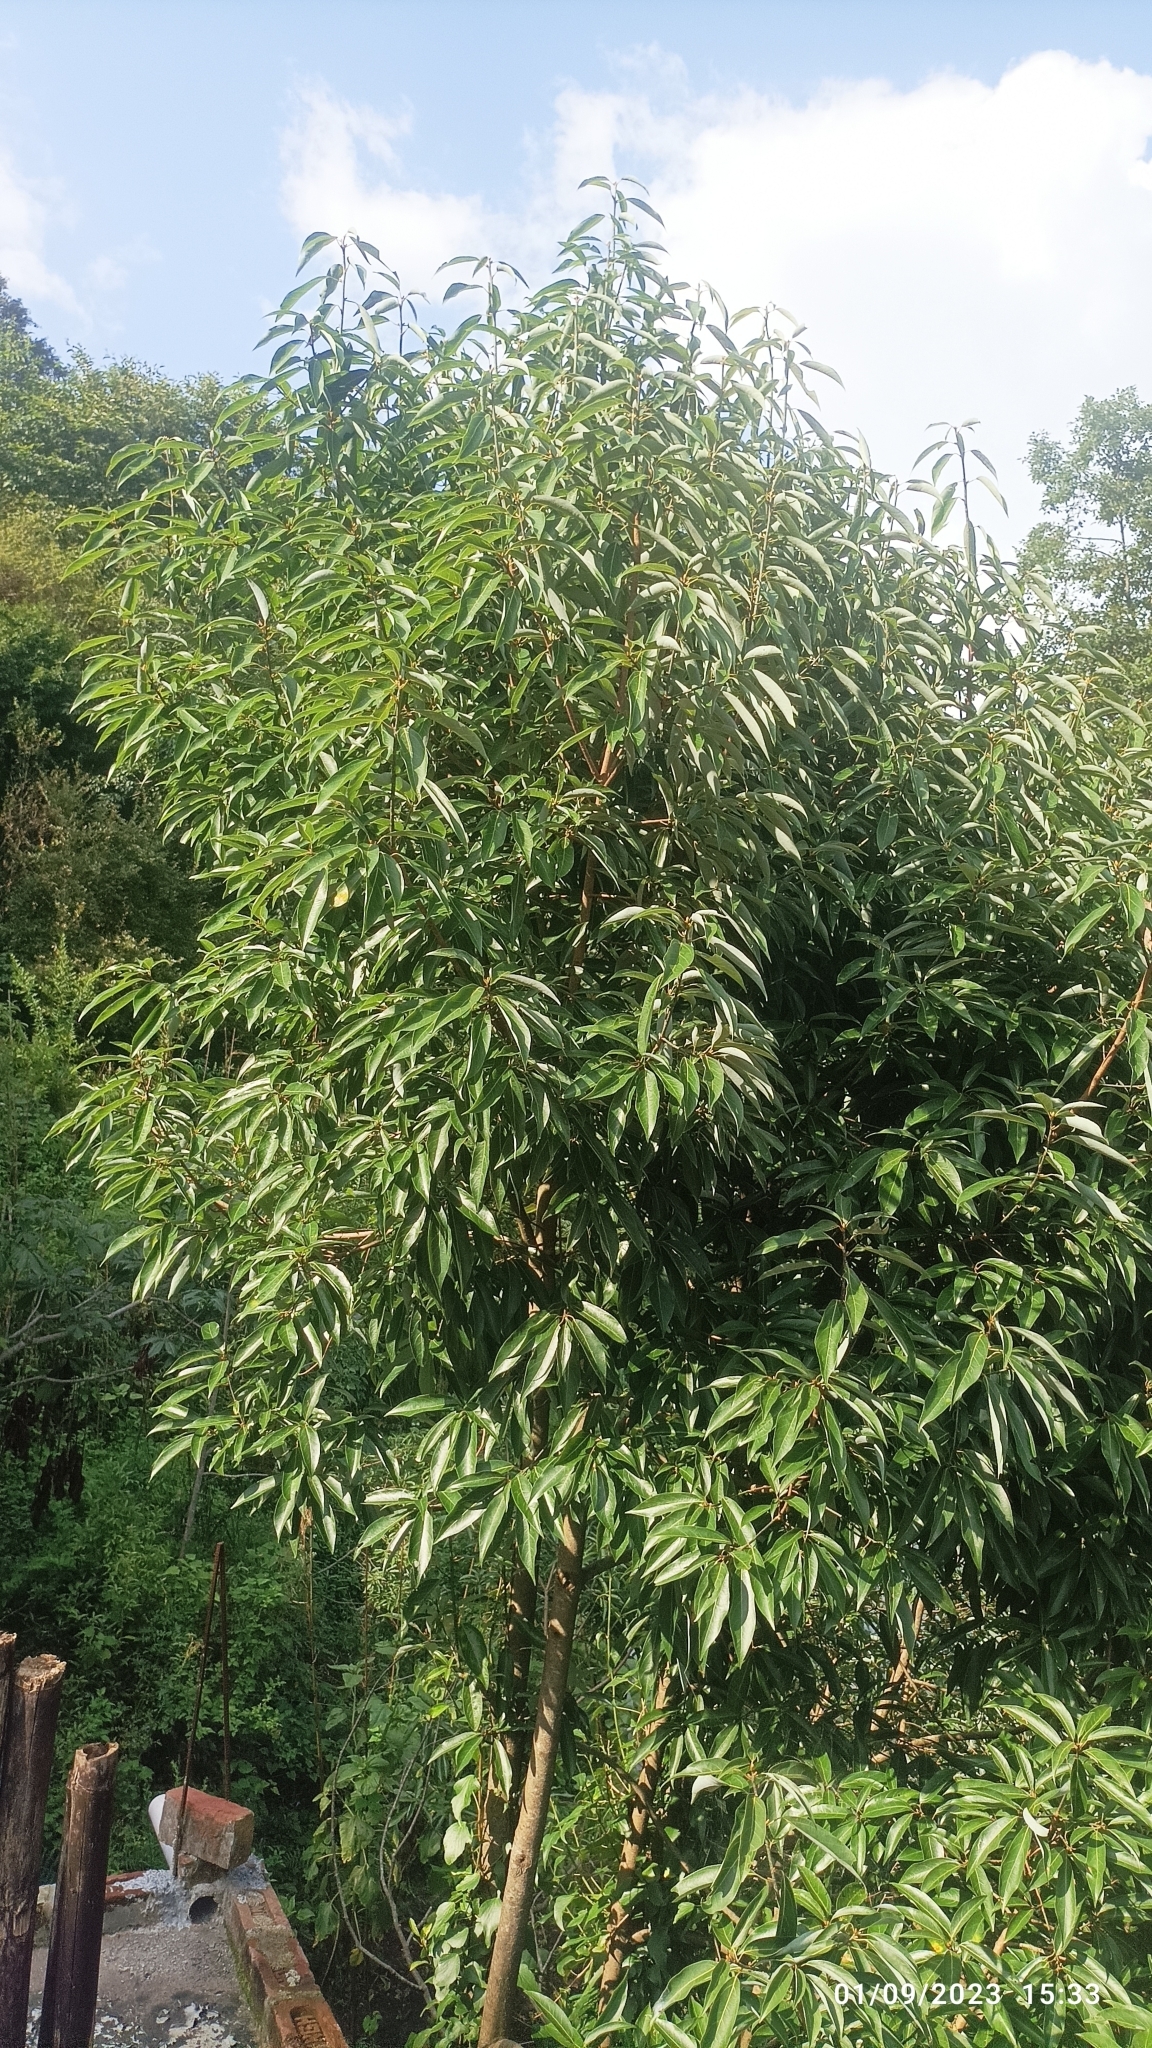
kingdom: Plantae
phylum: Tracheophyta
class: Magnoliopsida
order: Laurales
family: Lauraceae
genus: Neolitsea
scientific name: Neolitsea pallens
